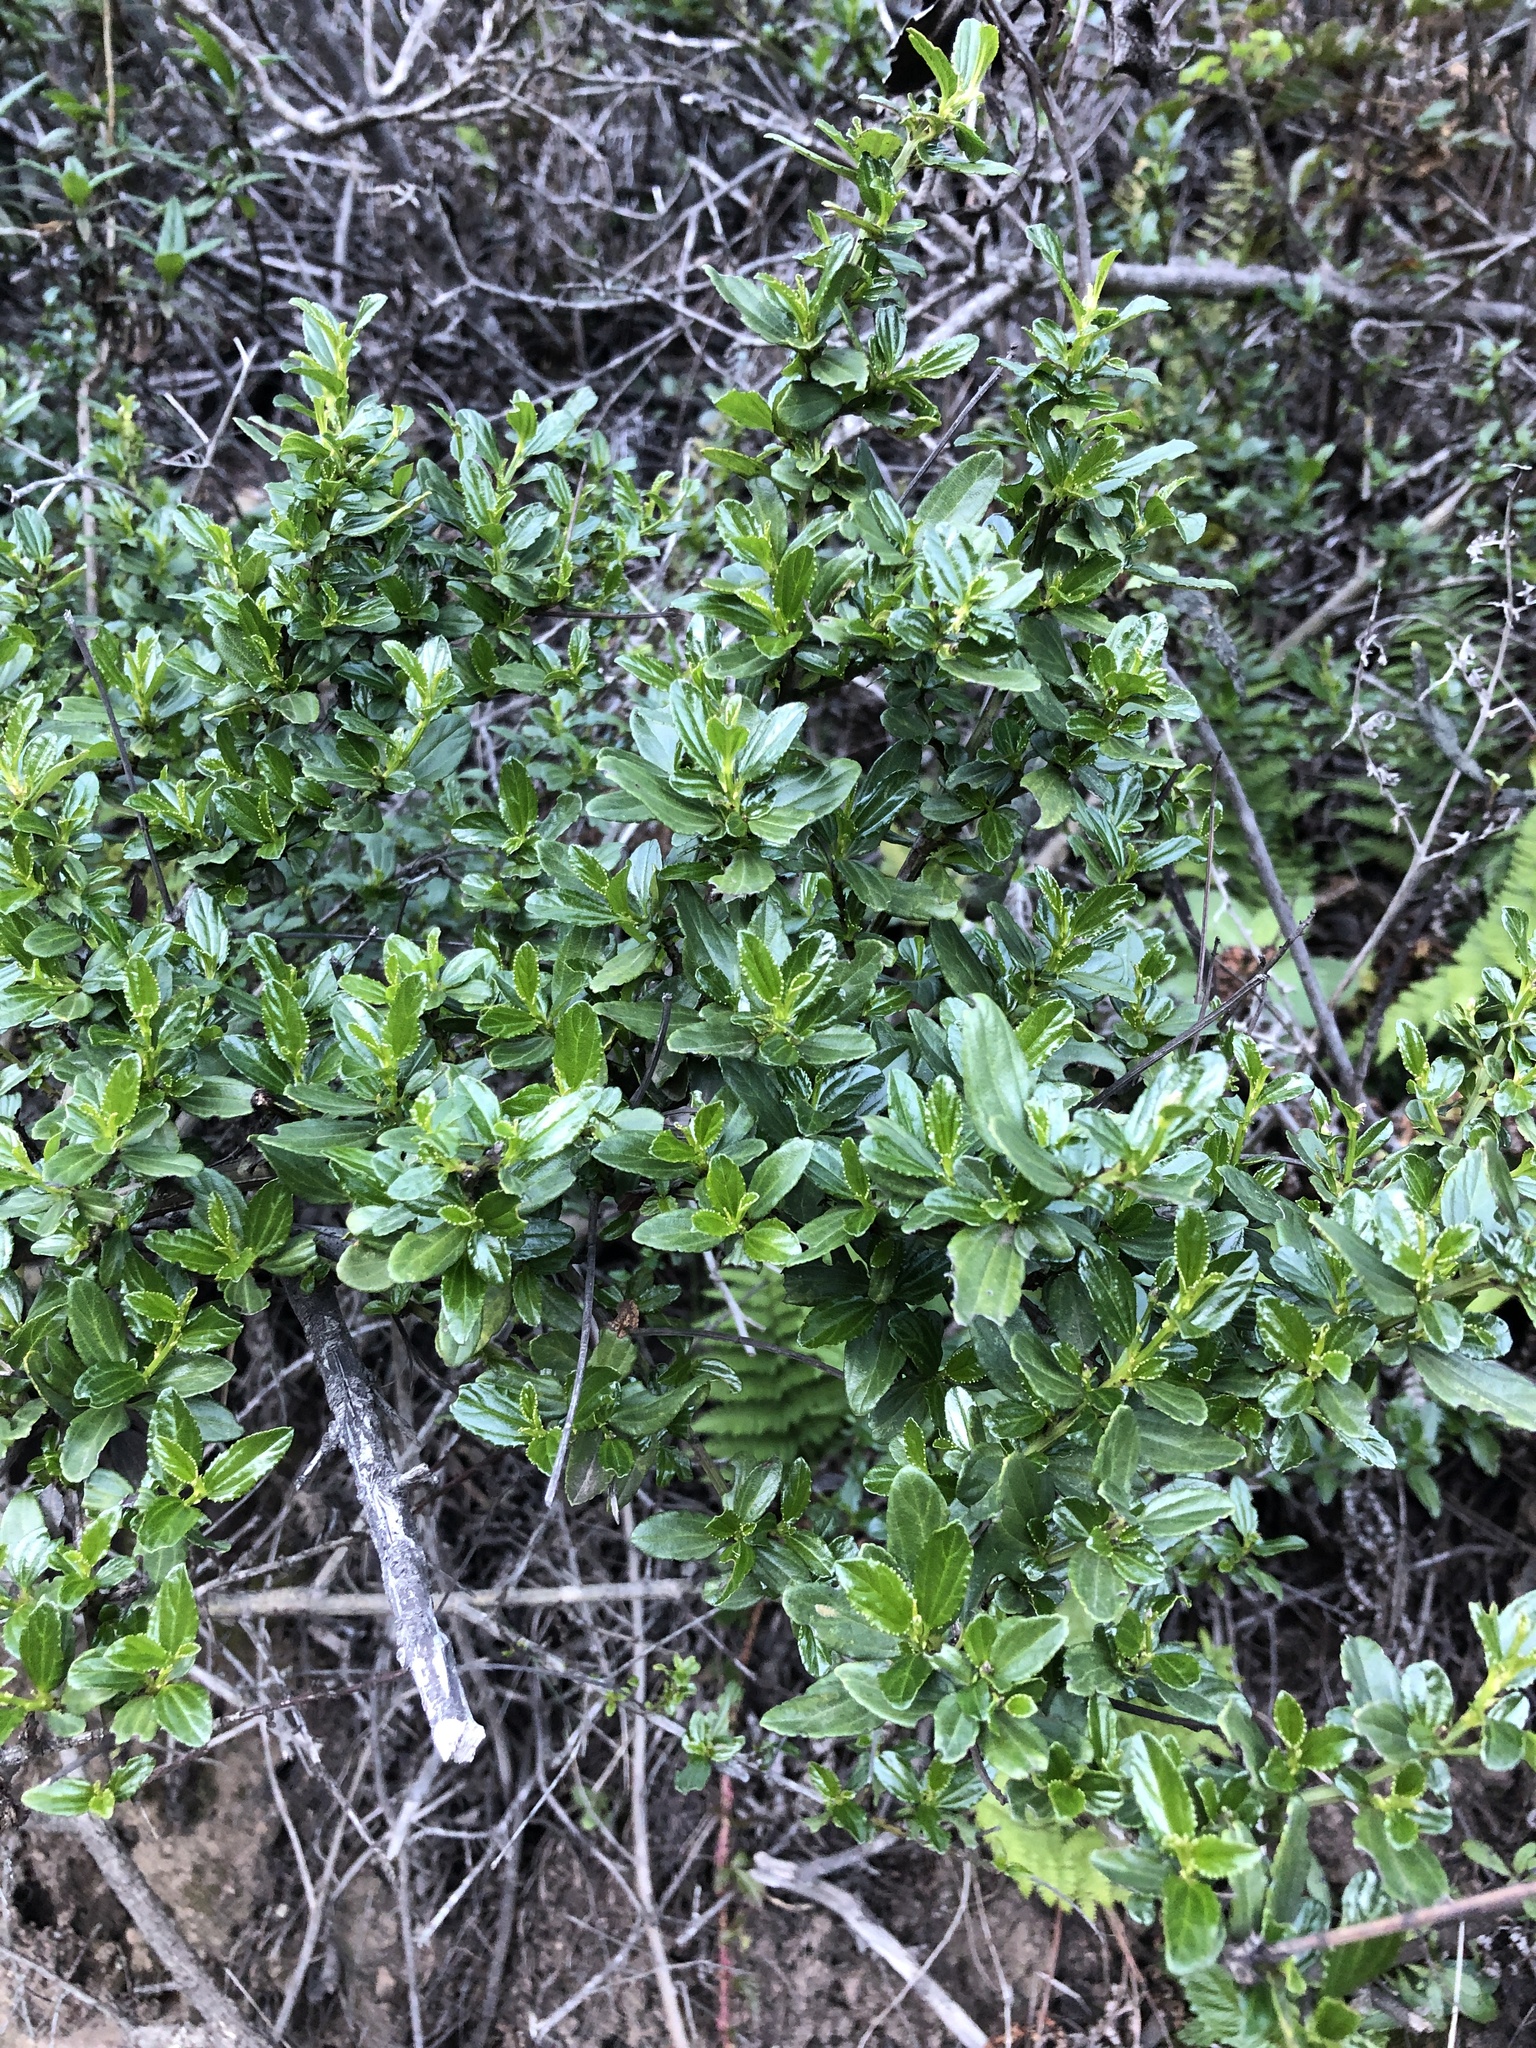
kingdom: Plantae
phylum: Tracheophyta
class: Magnoliopsida
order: Rosales
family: Rhamnaceae
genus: Ceanothus
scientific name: Ceanothus thyrsiflorus
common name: California-lilac
